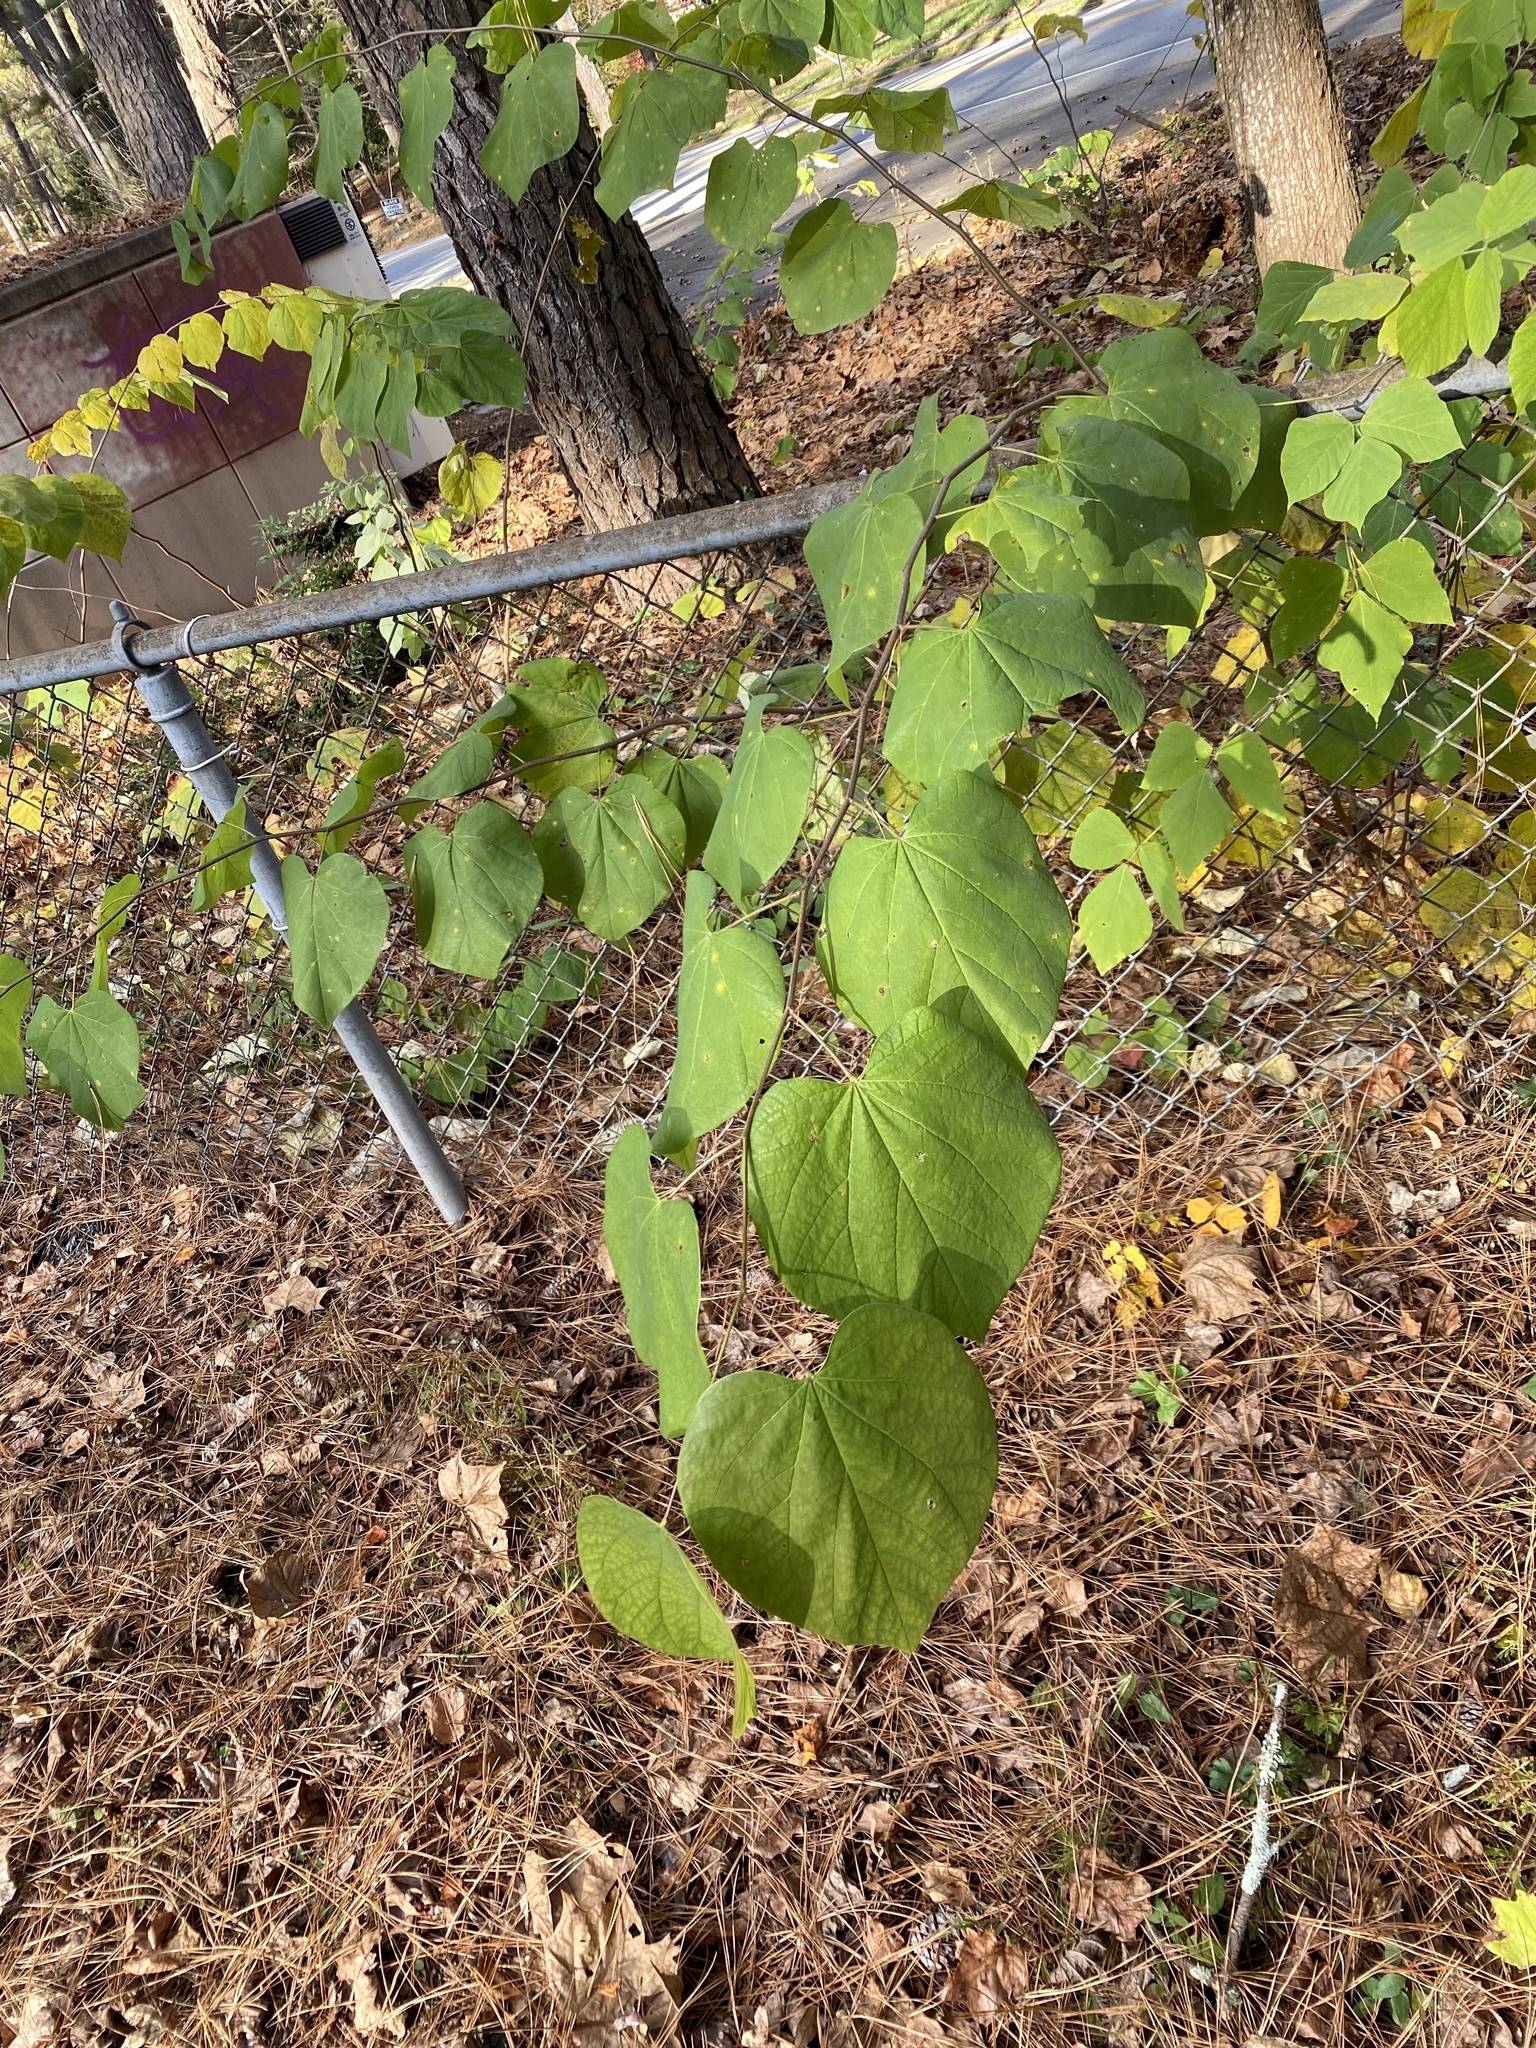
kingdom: Plantae
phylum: Tracheophyta
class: Magnoliopsida
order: Fabales
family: Fabaceae
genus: Cercis
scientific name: Cercis canadensis
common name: Eastern redbud
